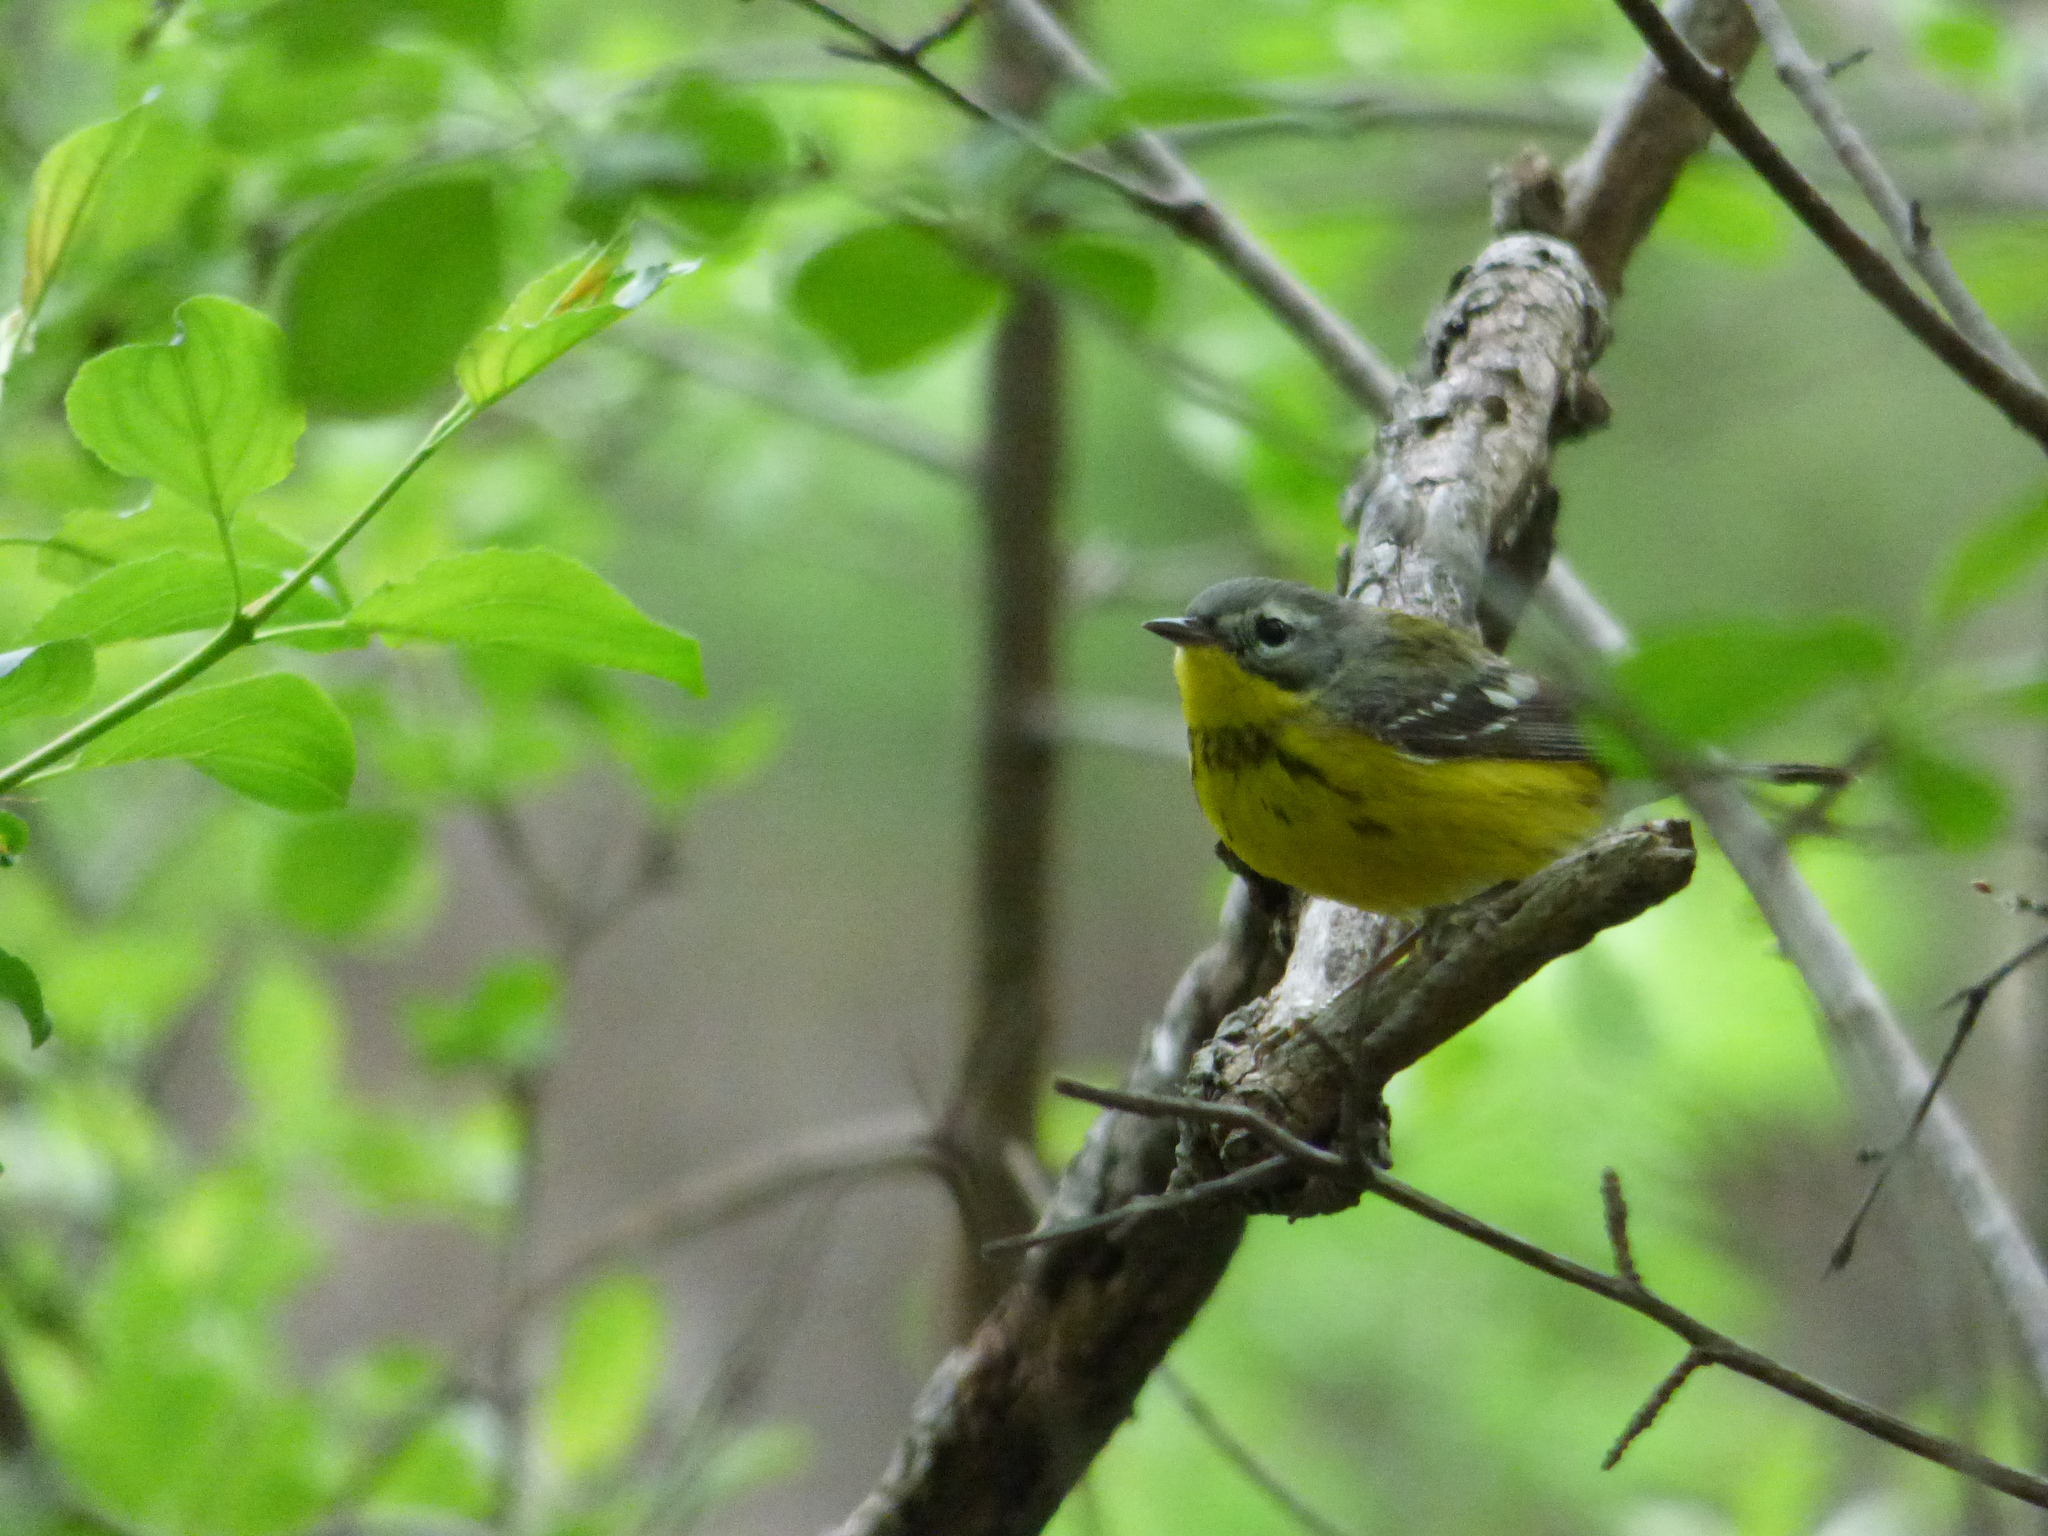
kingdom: Animalia
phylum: Chordata
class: Aves
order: Passeriformes
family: Parulidae
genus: Setophaga
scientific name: Setophaga magnolia
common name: Magnolia warbler
